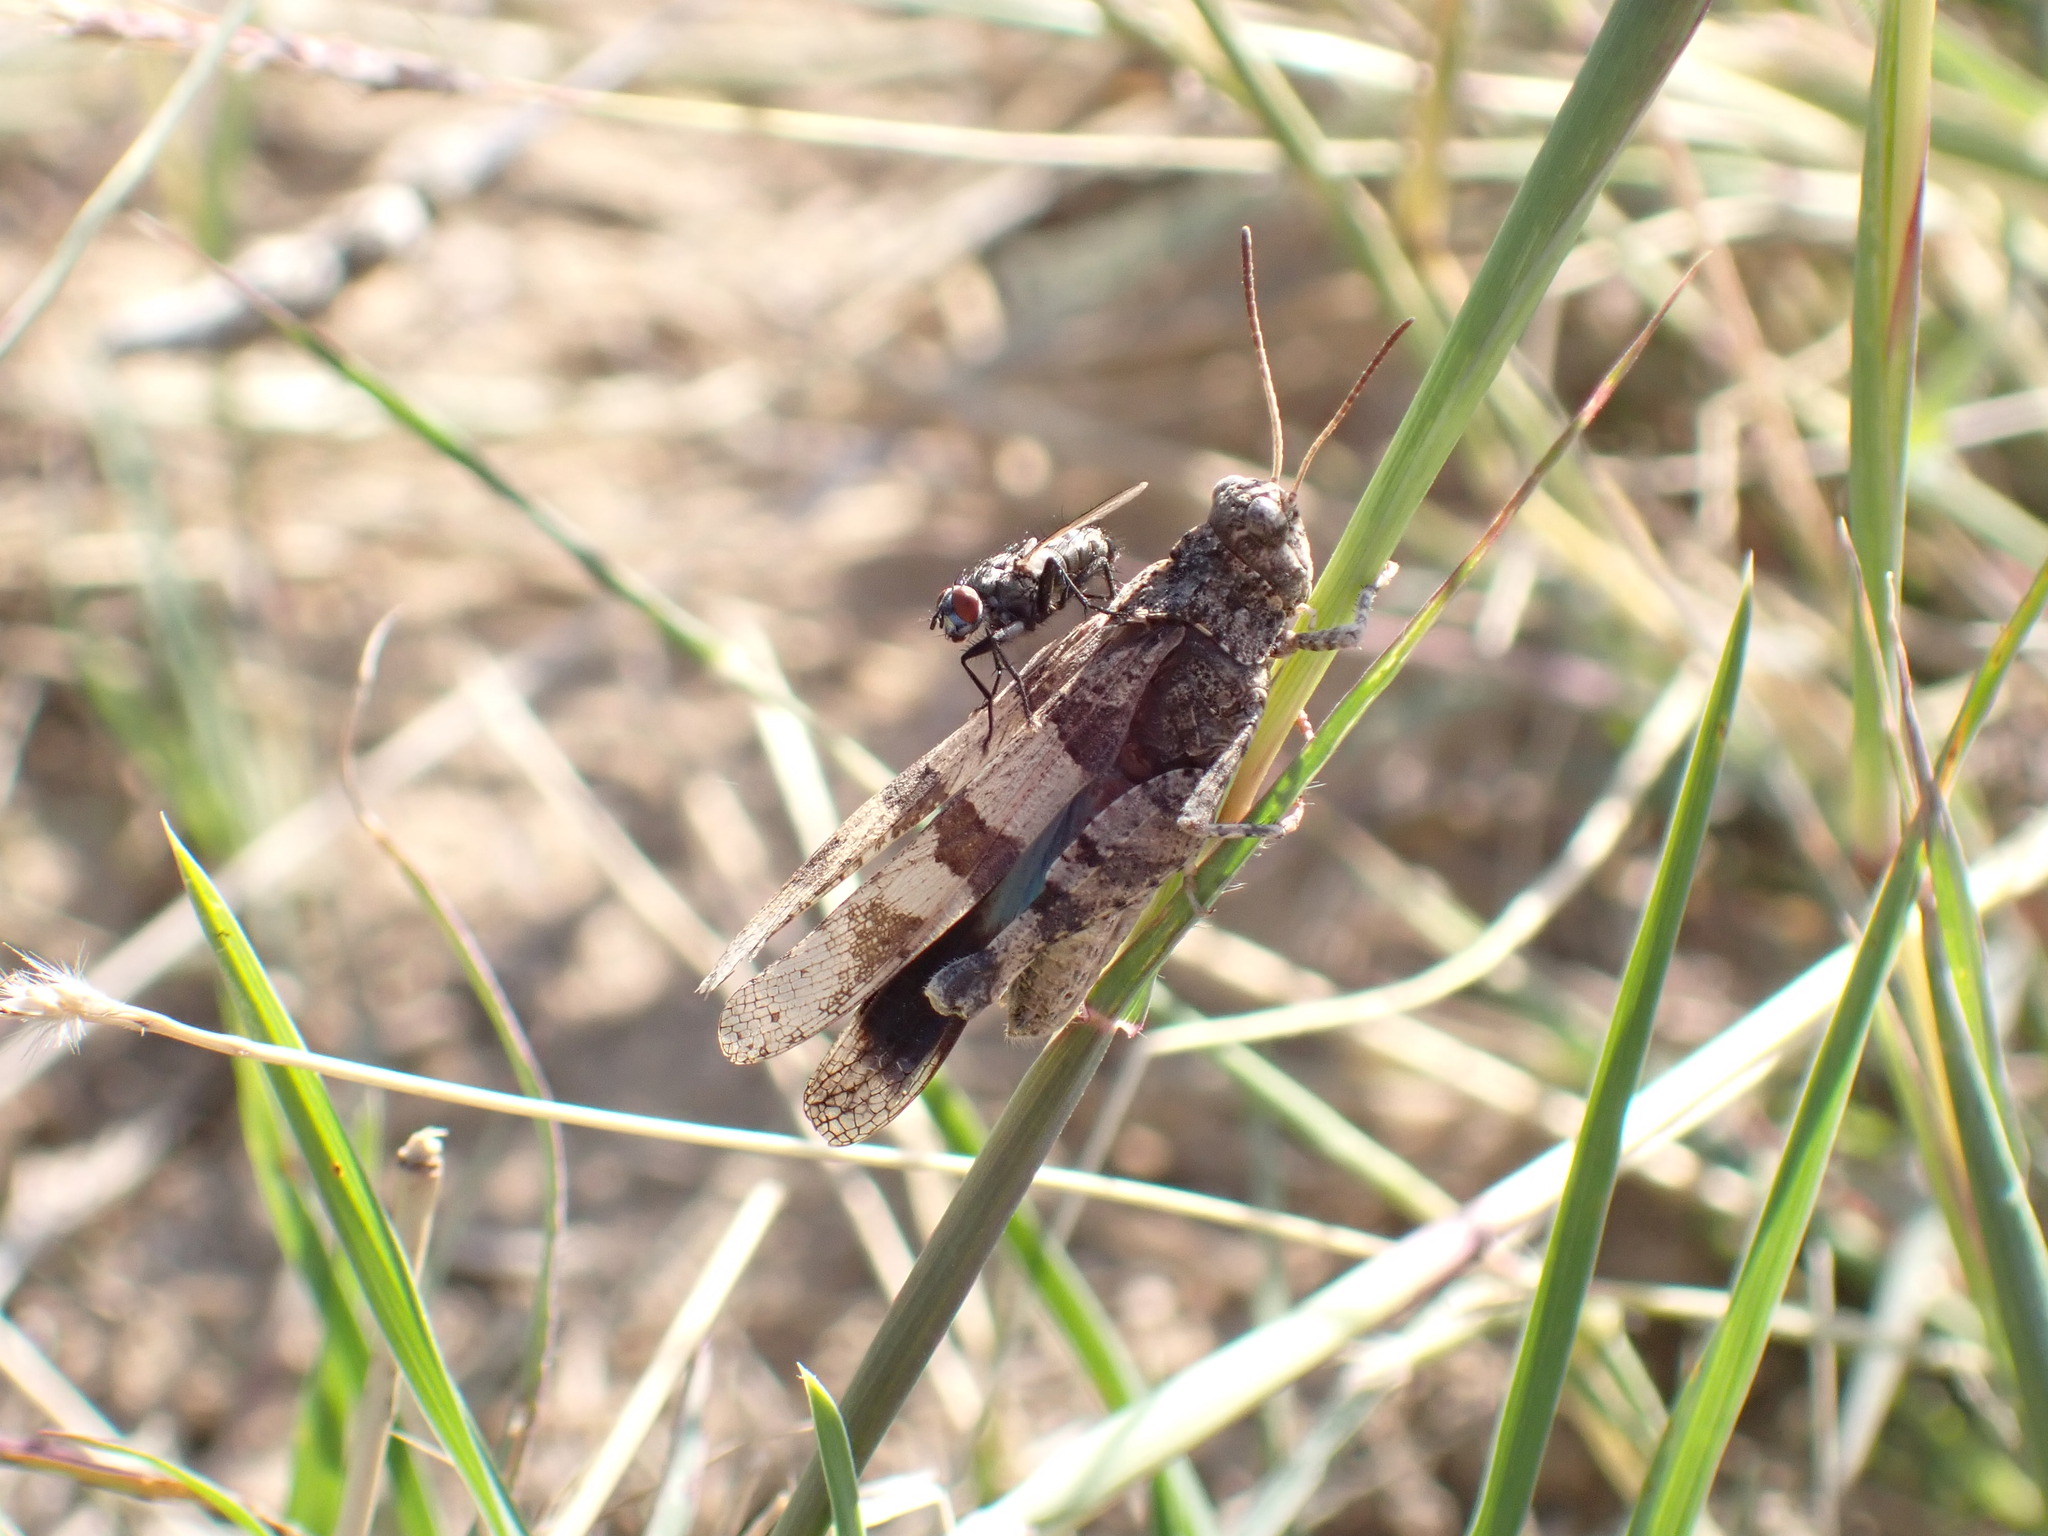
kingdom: Animalia
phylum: Arthropoda
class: Insecta
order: Orthoptera
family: Acrididae
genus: Oedipoda
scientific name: Oedipoda caerulescens
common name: Blue-winged grasshopper
